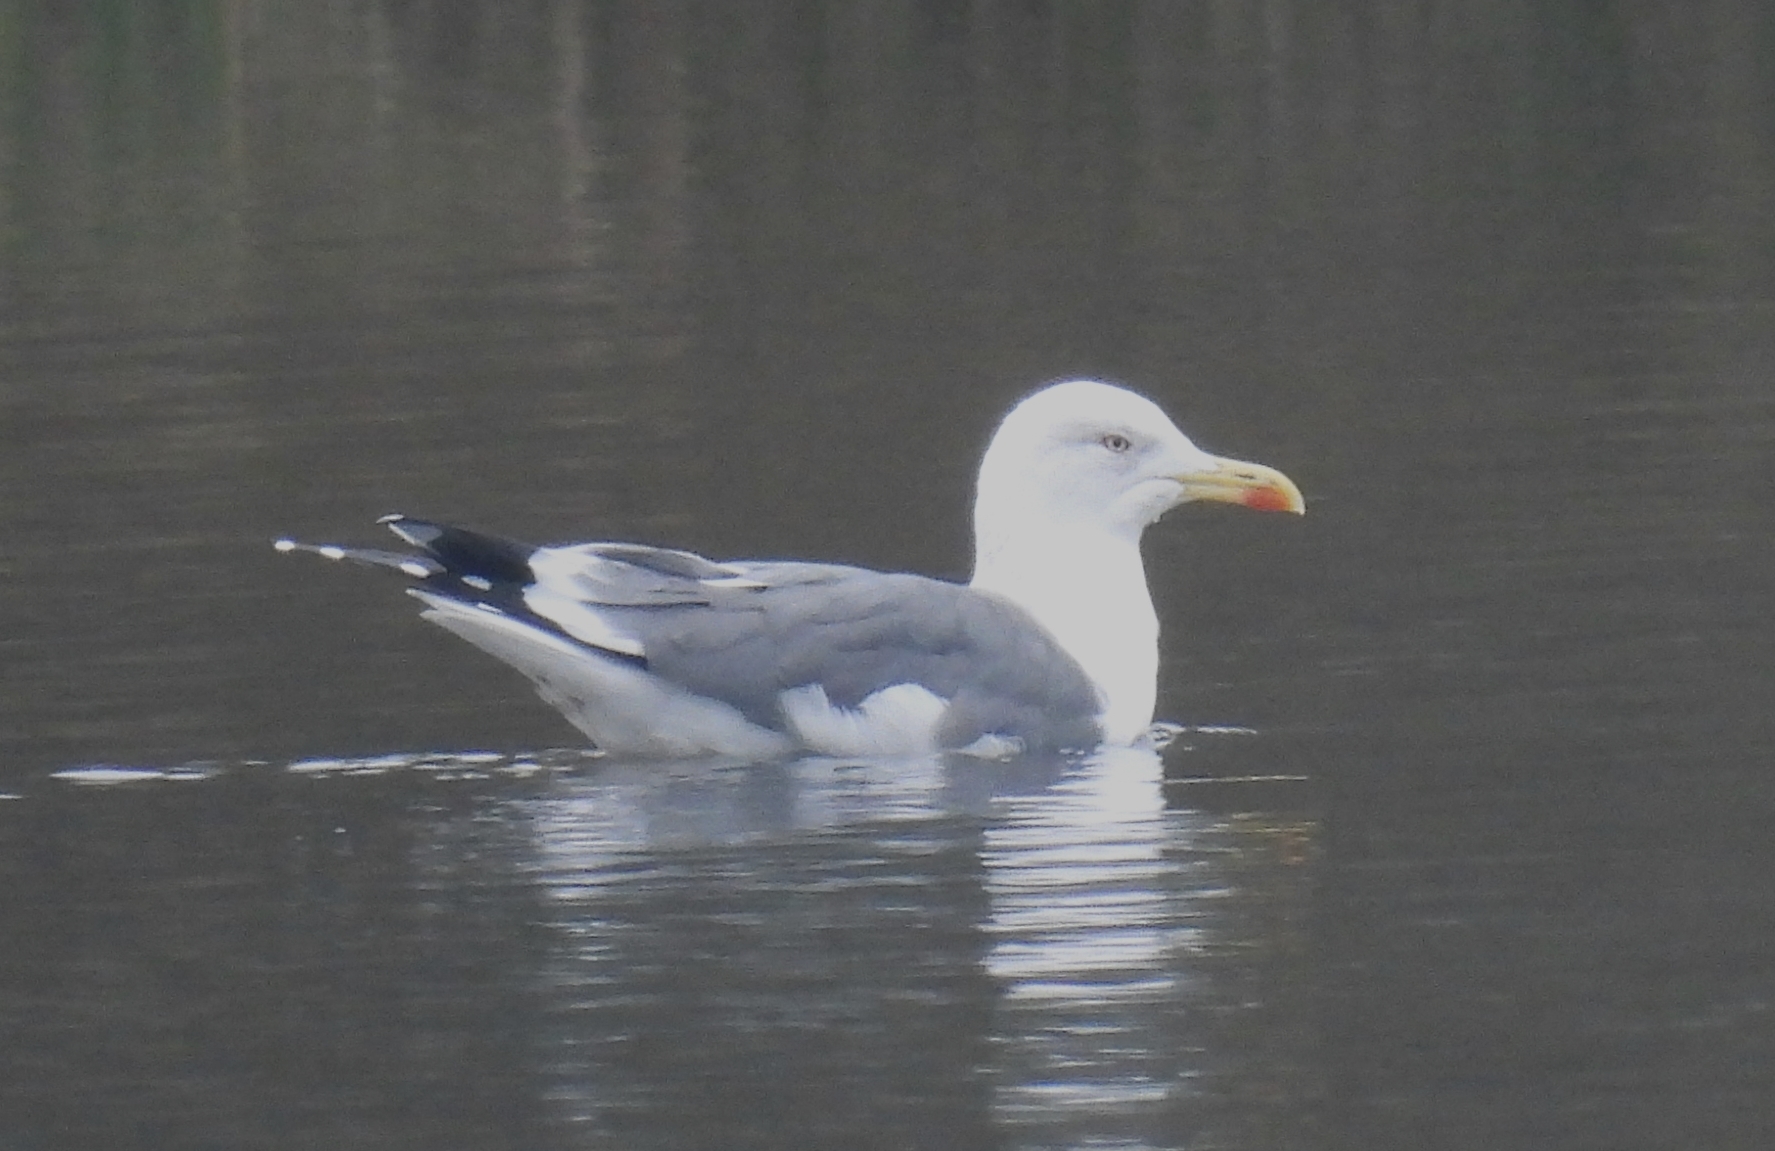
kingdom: Animalia
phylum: Chordata
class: Aves
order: Charadriiformes
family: Laridae
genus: Larus
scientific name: Larus argentatus
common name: Herring gull
